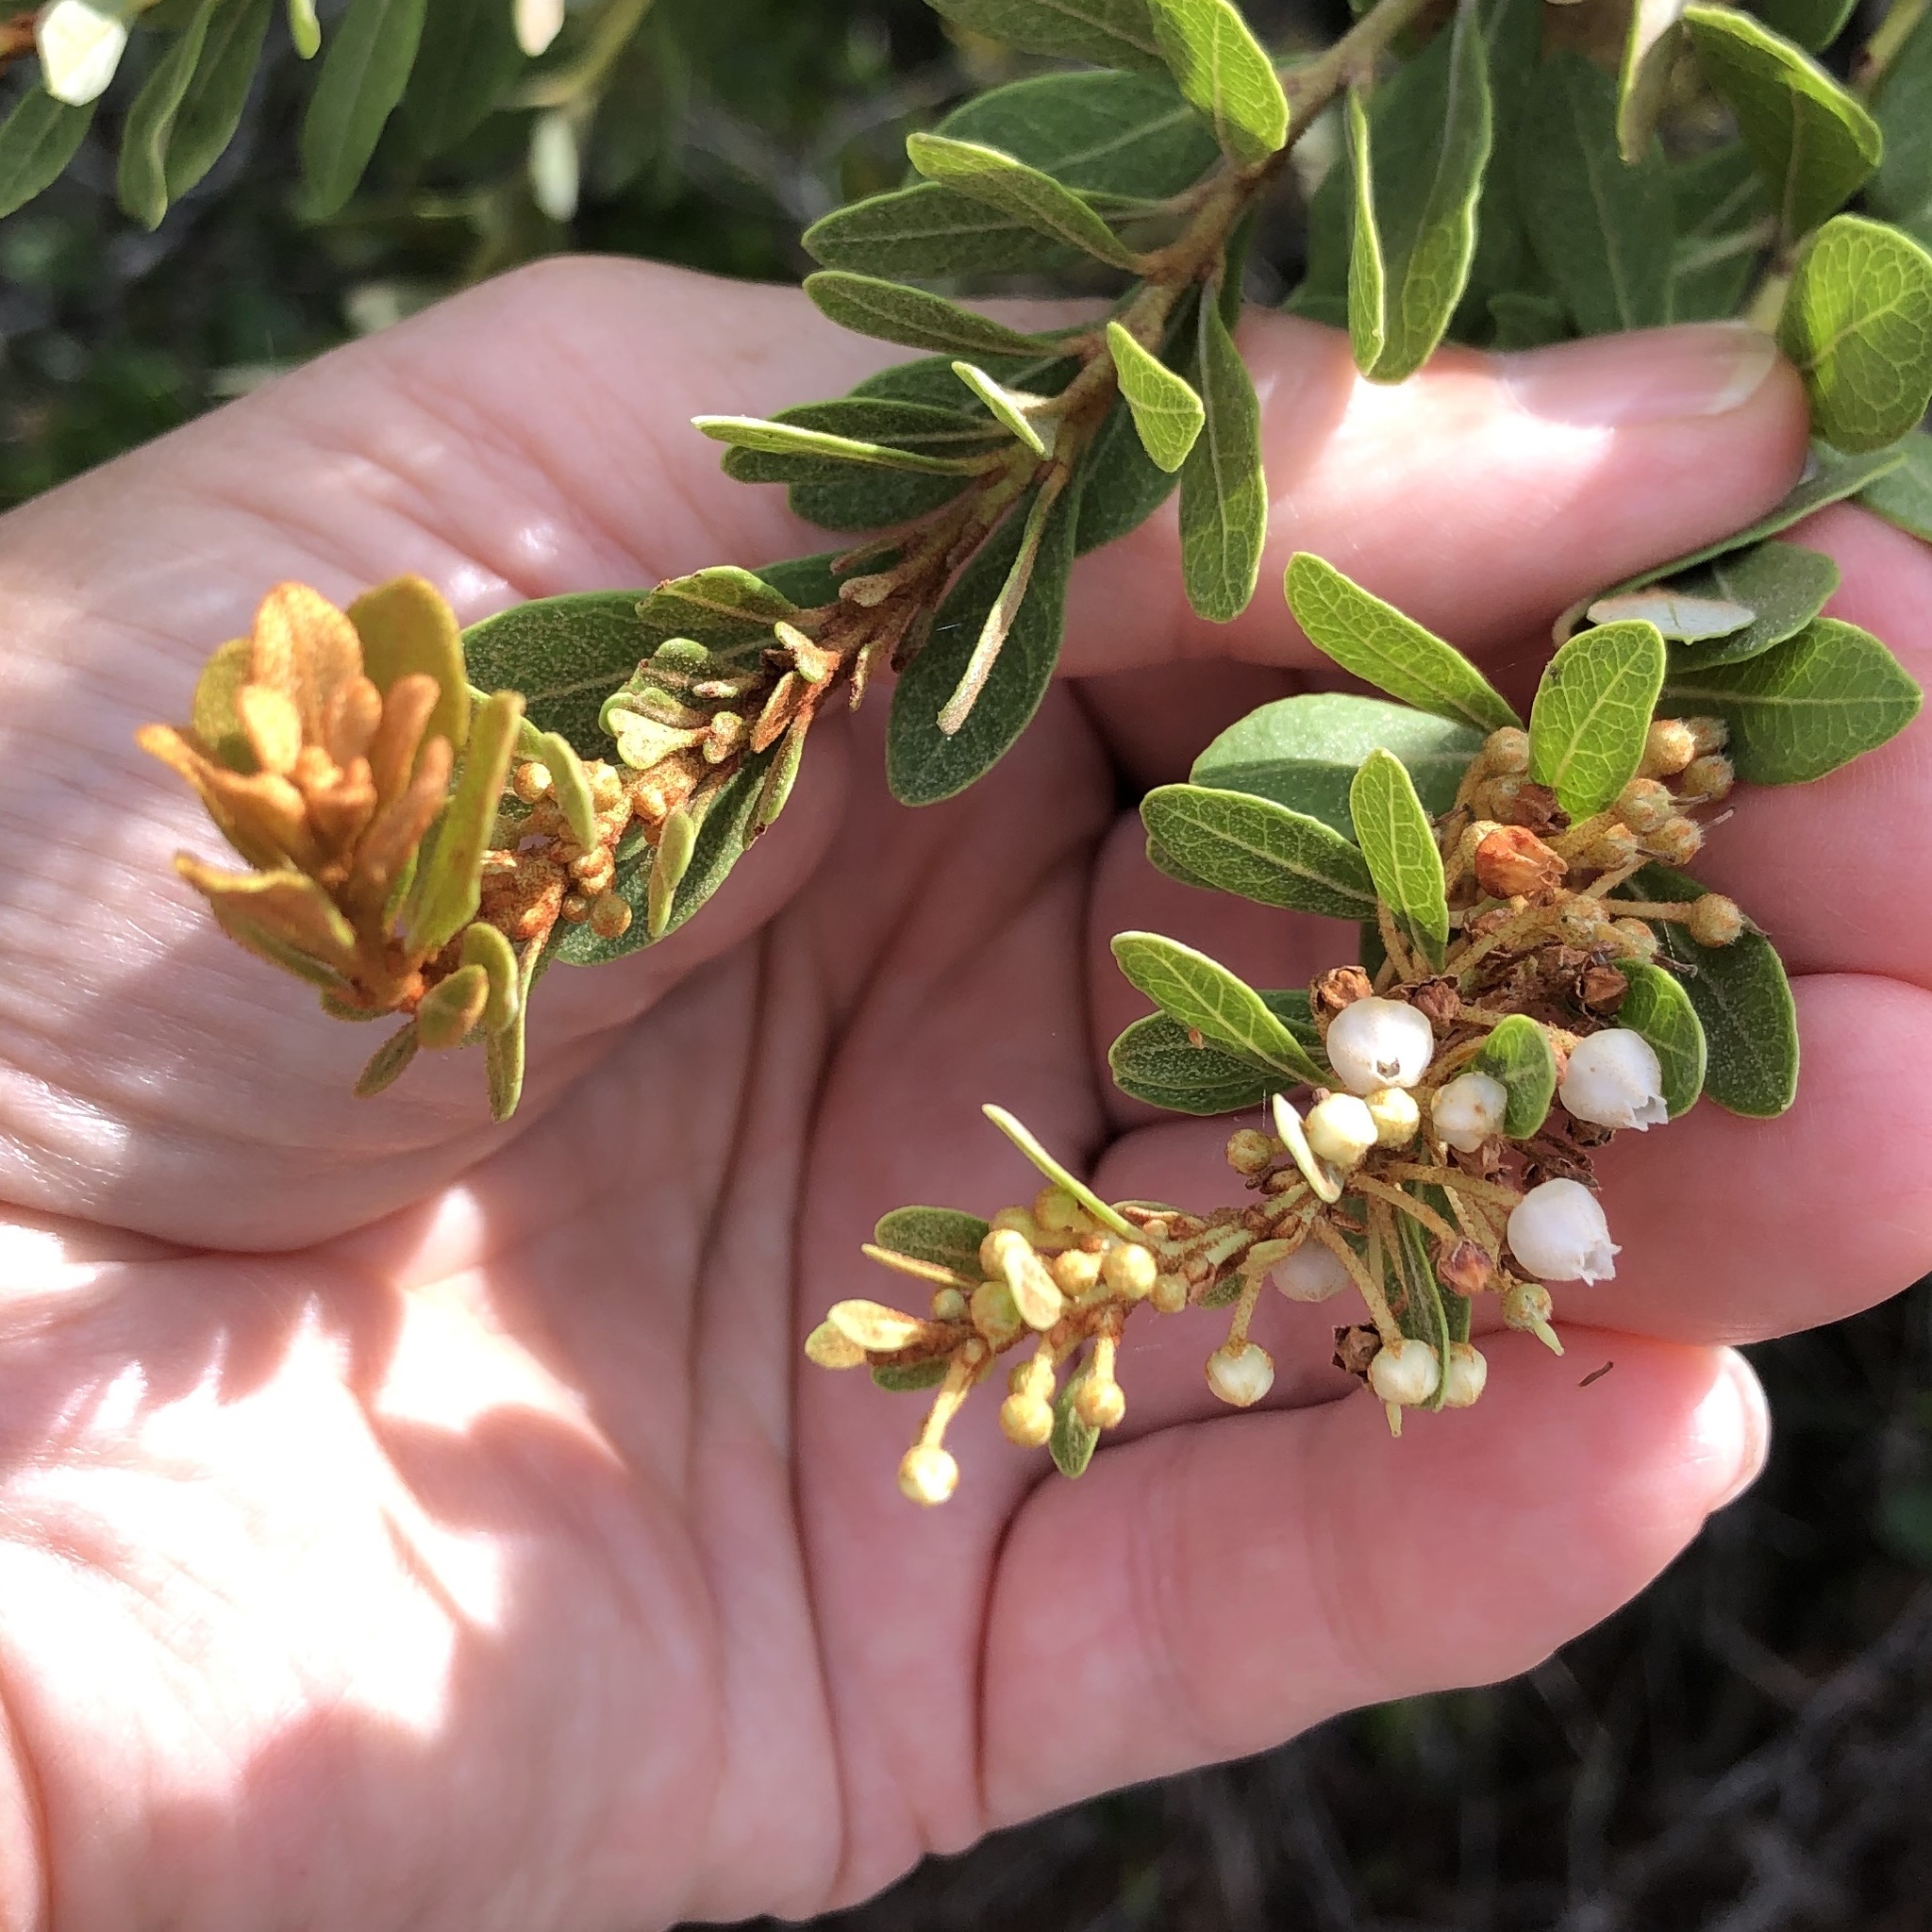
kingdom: Plantae
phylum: Tracheophyta
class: Magnoliopsida
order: Ericales
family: Ericaceae
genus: Lyonia
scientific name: Lyonia fruticosa
